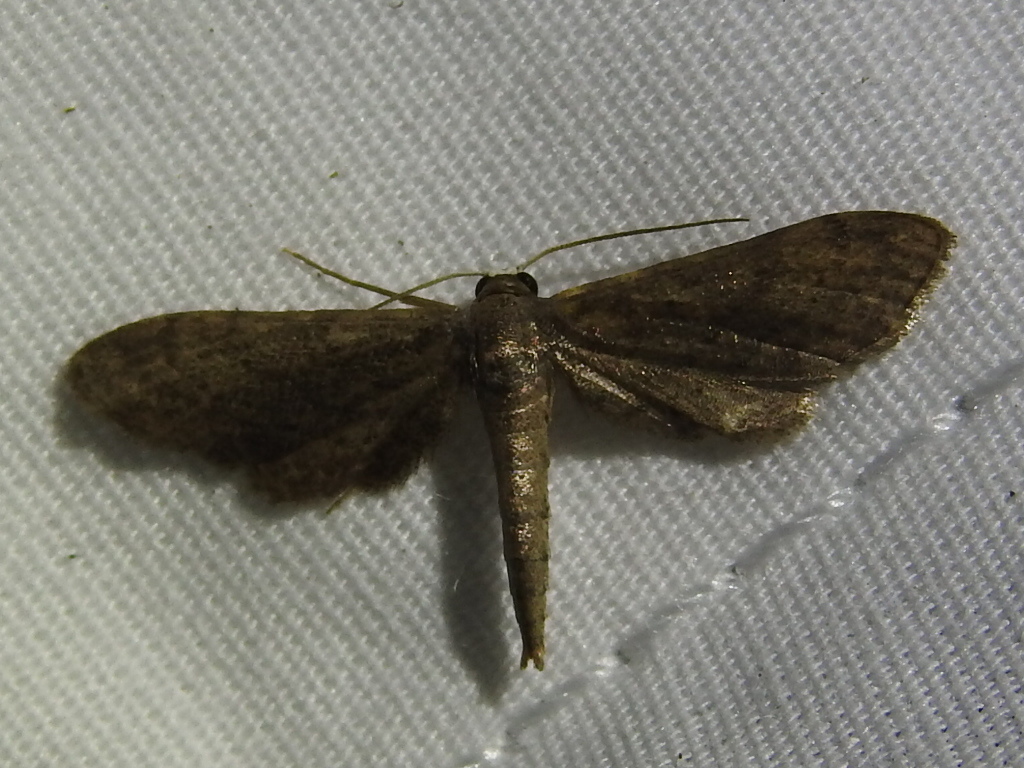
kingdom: Animalia
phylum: Arthropoda
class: Insecta
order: Lepidoptera
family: Geometridae
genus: Protoproutia
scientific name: Protoproutia laredoata
